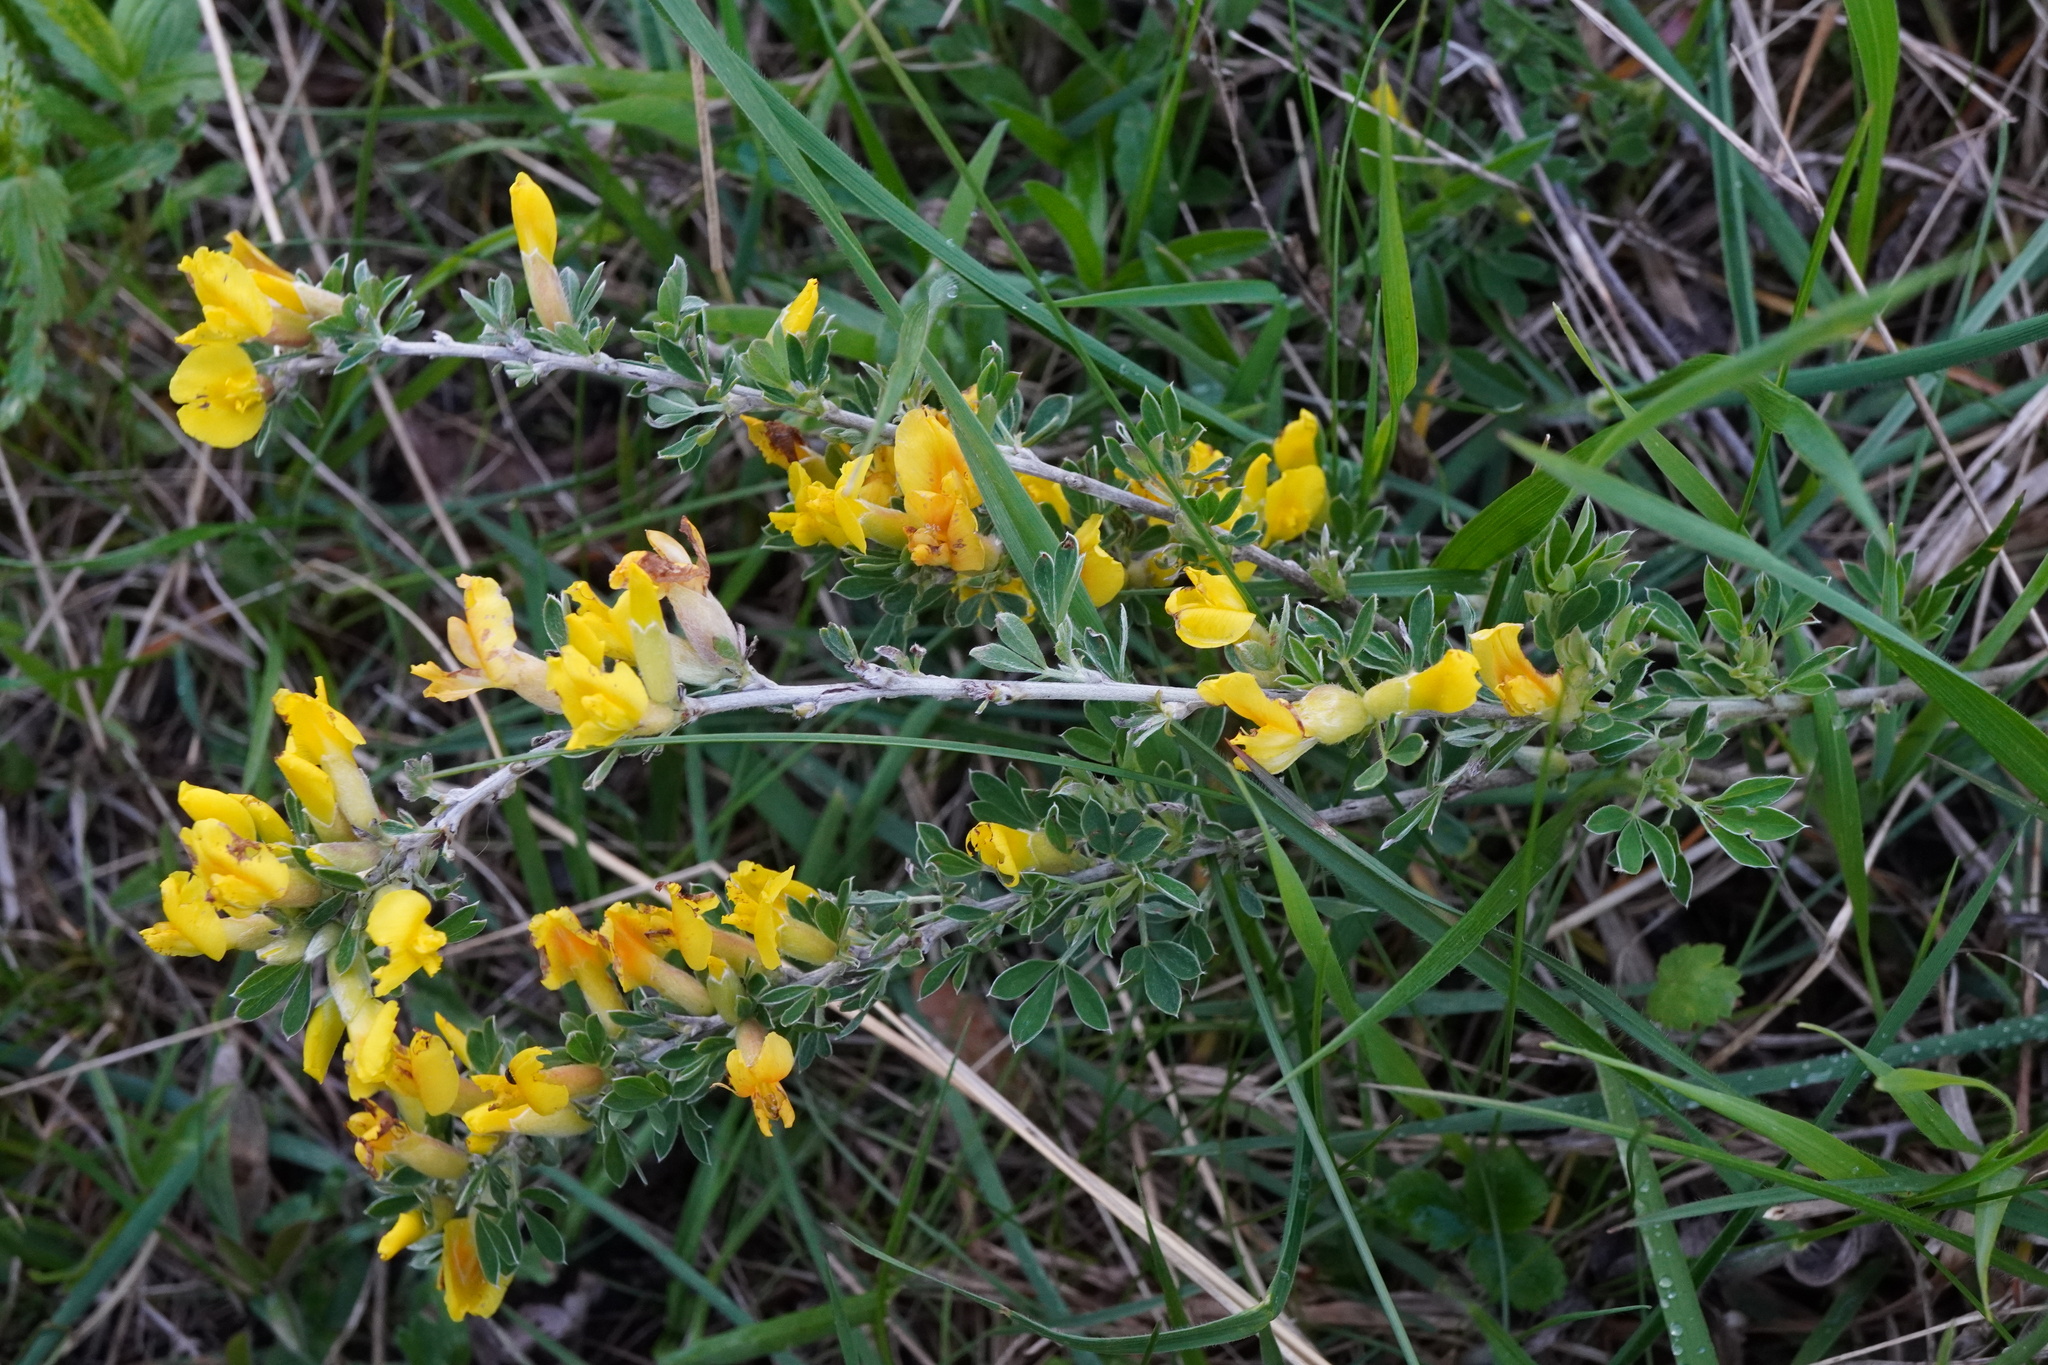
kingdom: Plantae
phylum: Tracheophyta
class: Magnoliopsida
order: Fabales
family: Fabaceae
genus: Chamaecytisus
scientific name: Chamaecytisus ratisbonensis
